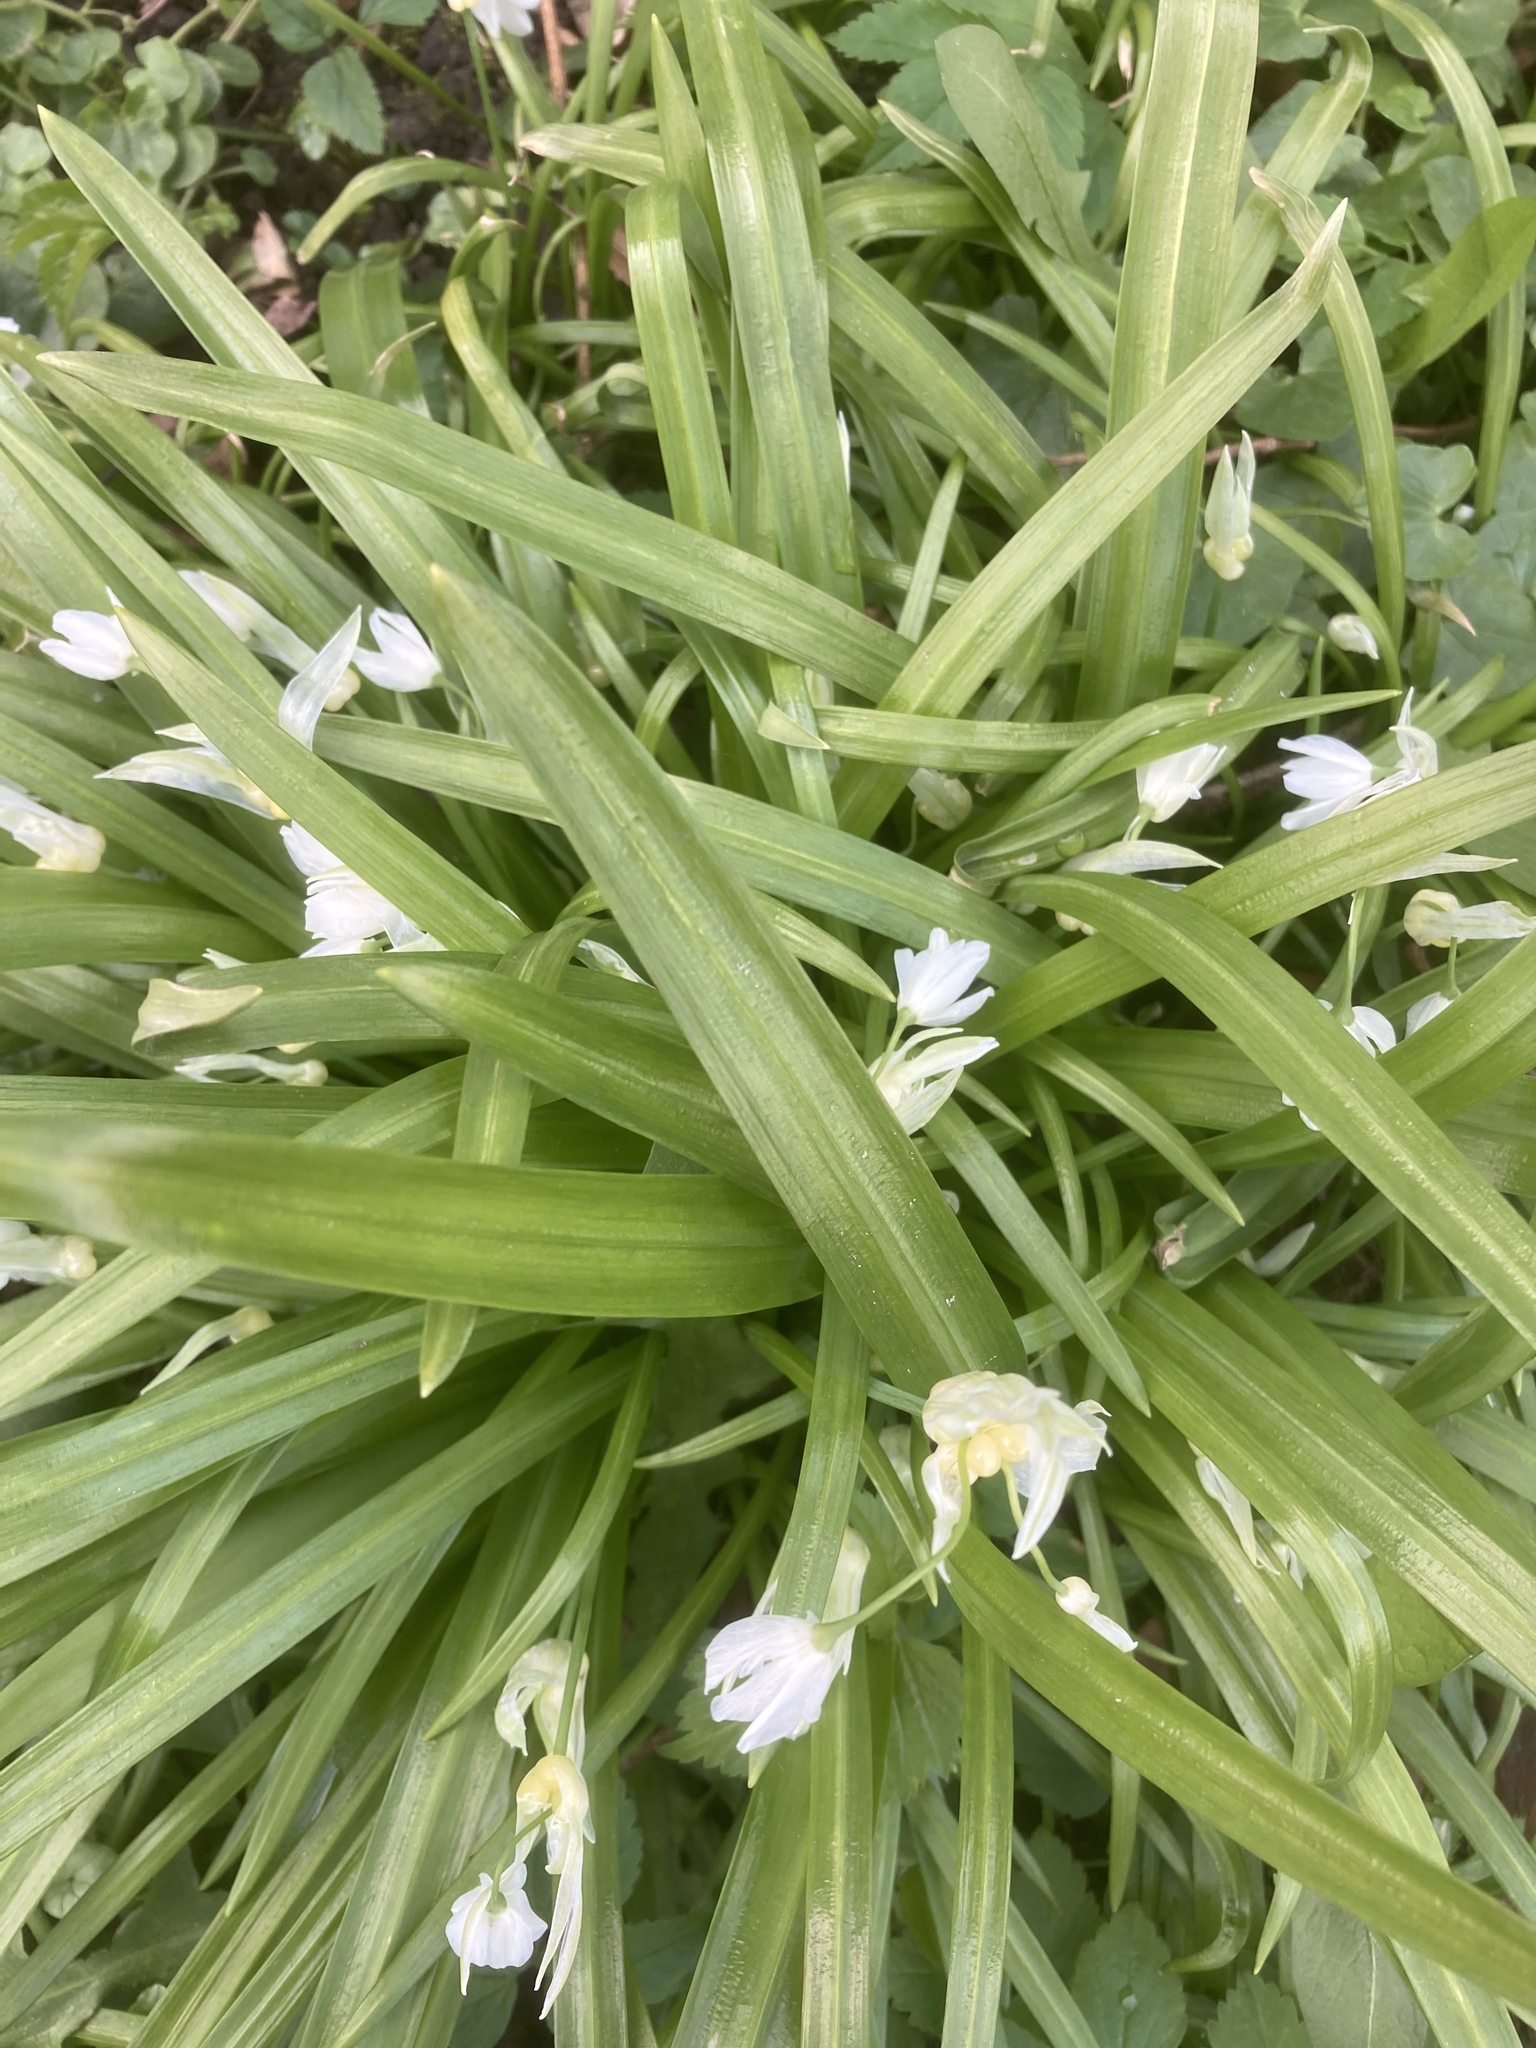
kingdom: Plantae
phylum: Tracheophyta
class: Liliopsida
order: Asparagales
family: Amaryllidaceae
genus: Allium
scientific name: Allium paradoxum
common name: Few-flowered garlic
